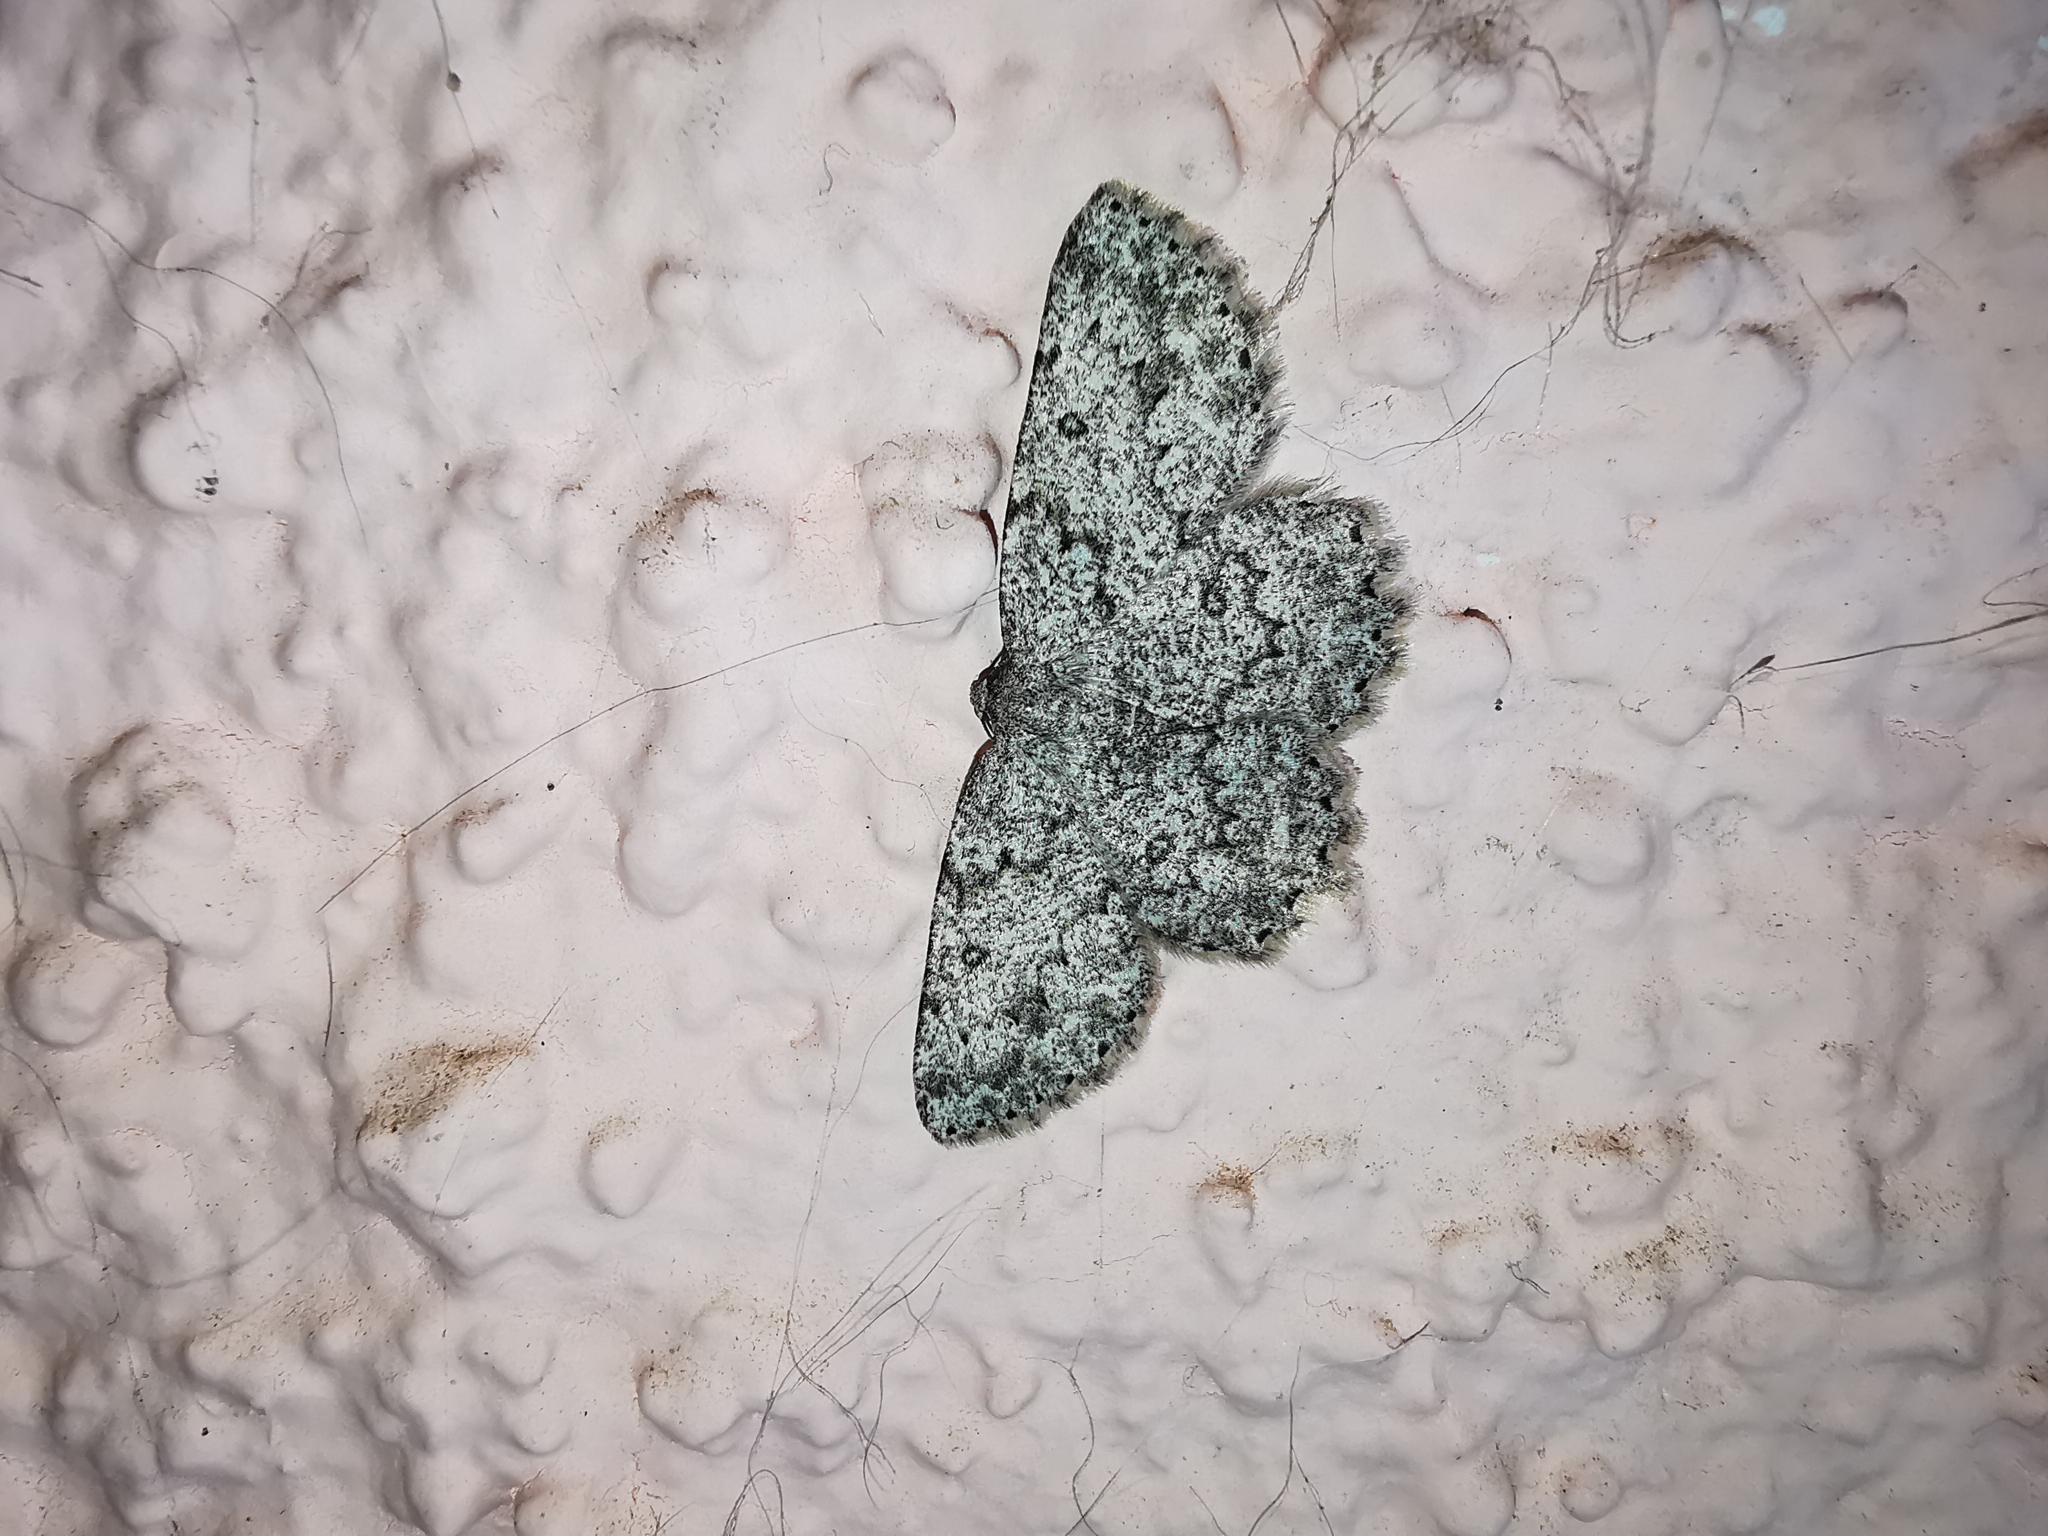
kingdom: Animalia
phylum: Arthropoda
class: Insecta
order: Lepidoptera
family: Geometridae
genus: Charissa
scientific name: Charissa onustaria
